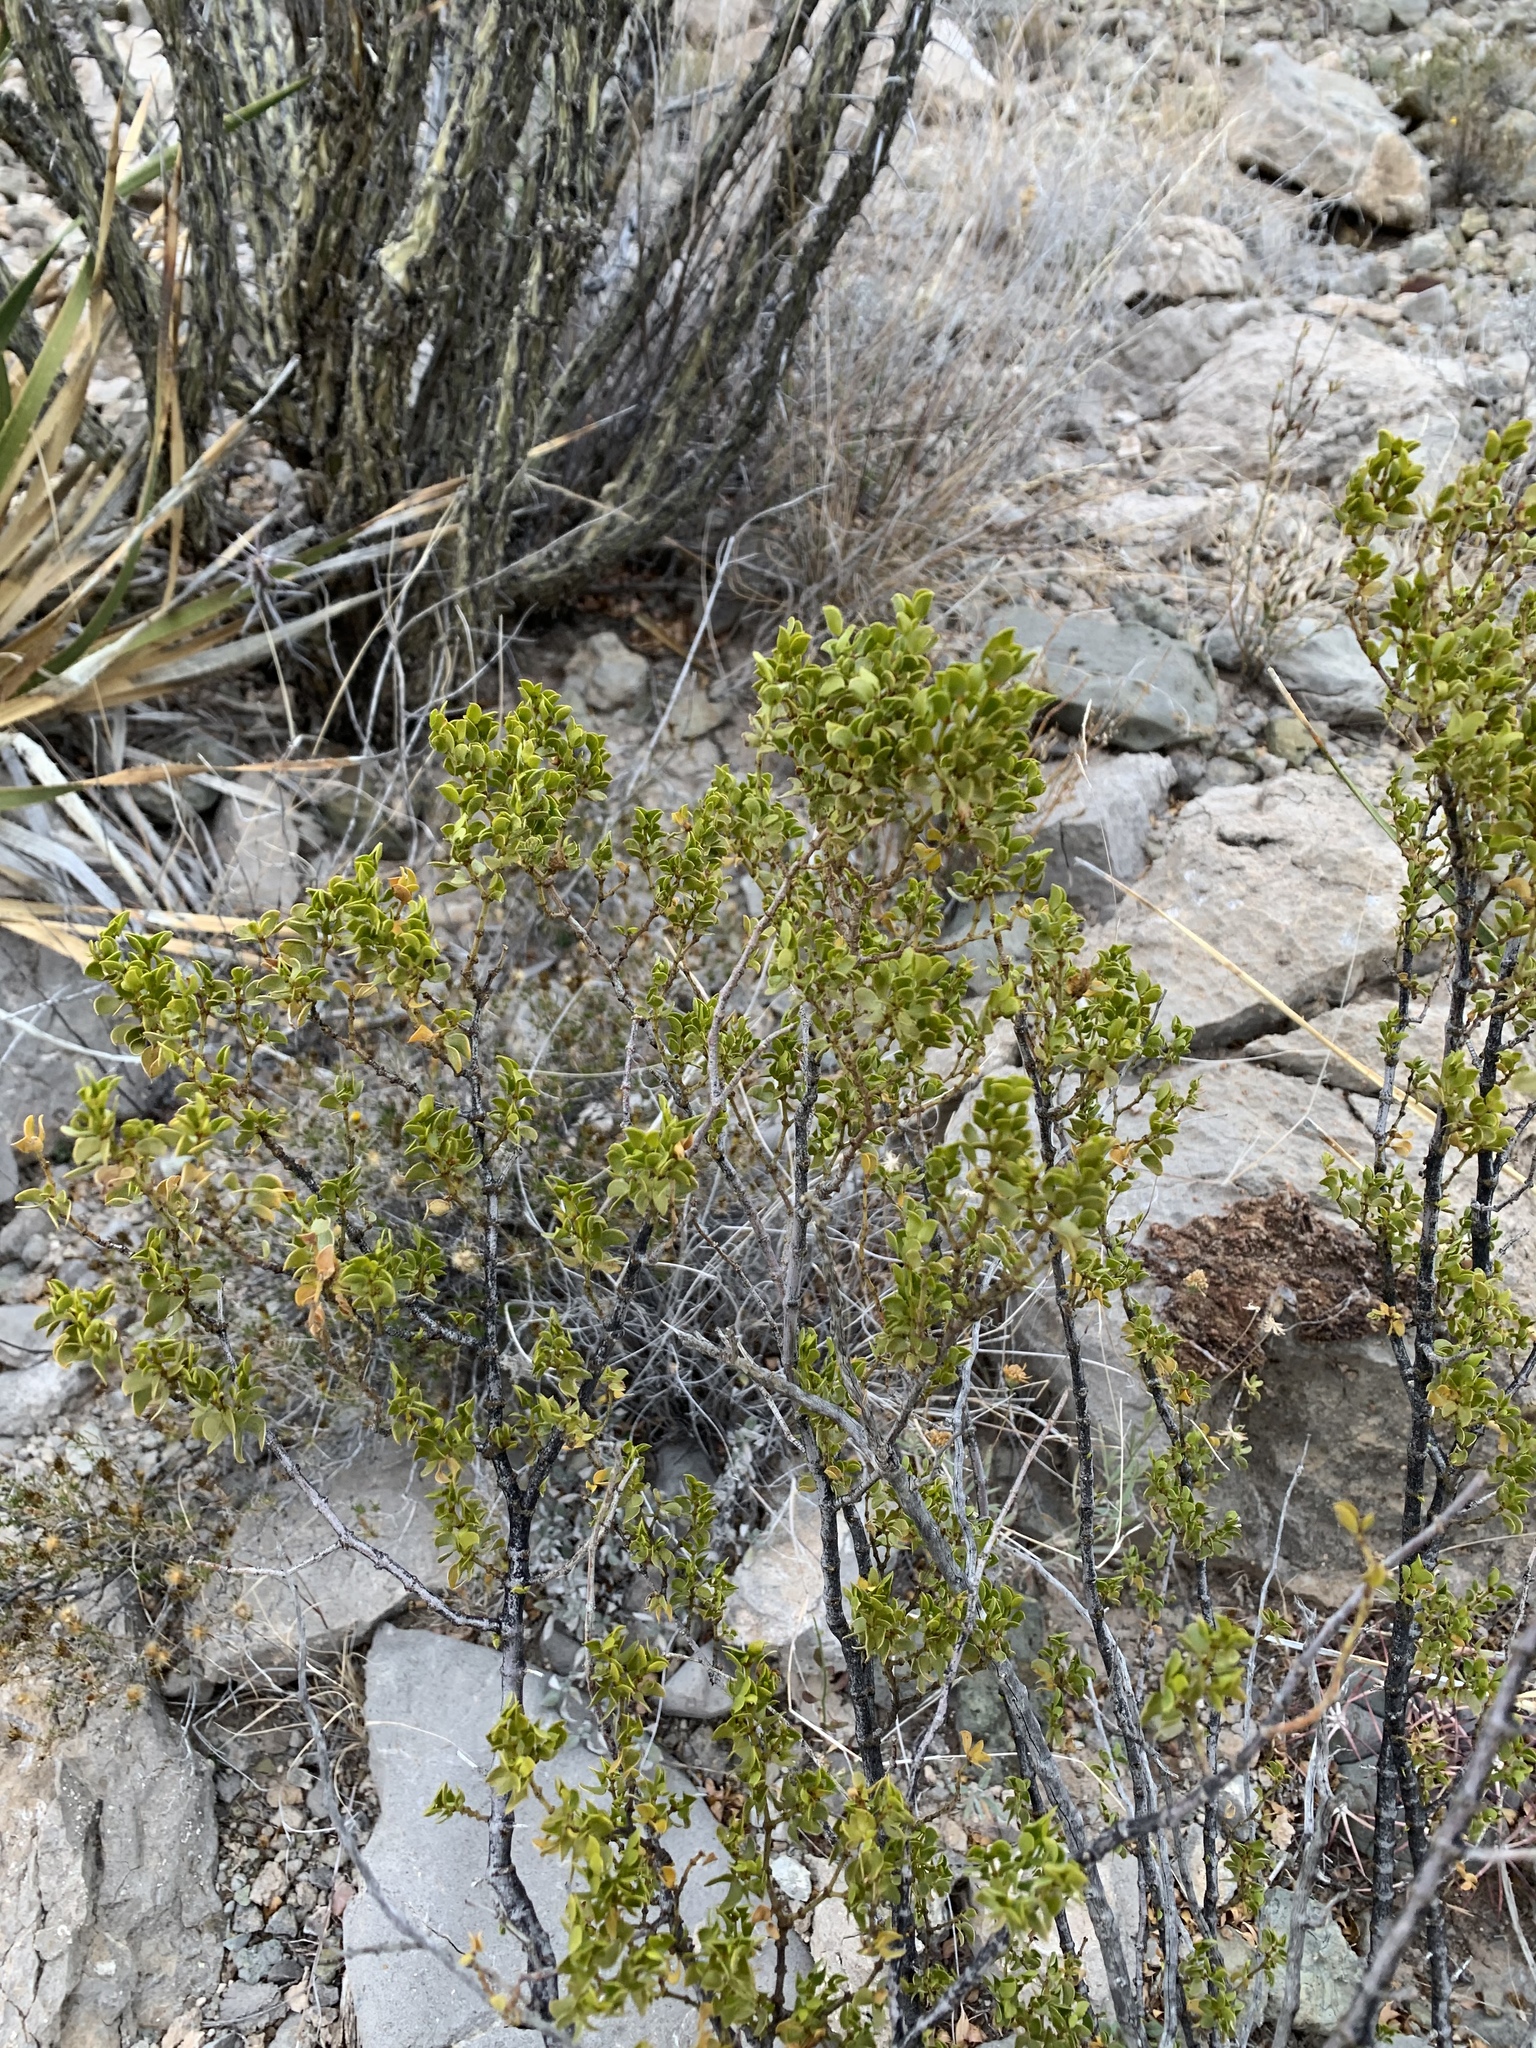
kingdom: Plantae
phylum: Tracheophyta
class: Magnoliopsida
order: Zygophyllales
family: Zygophyllaceae
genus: Larrea
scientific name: Larrea tridentata
